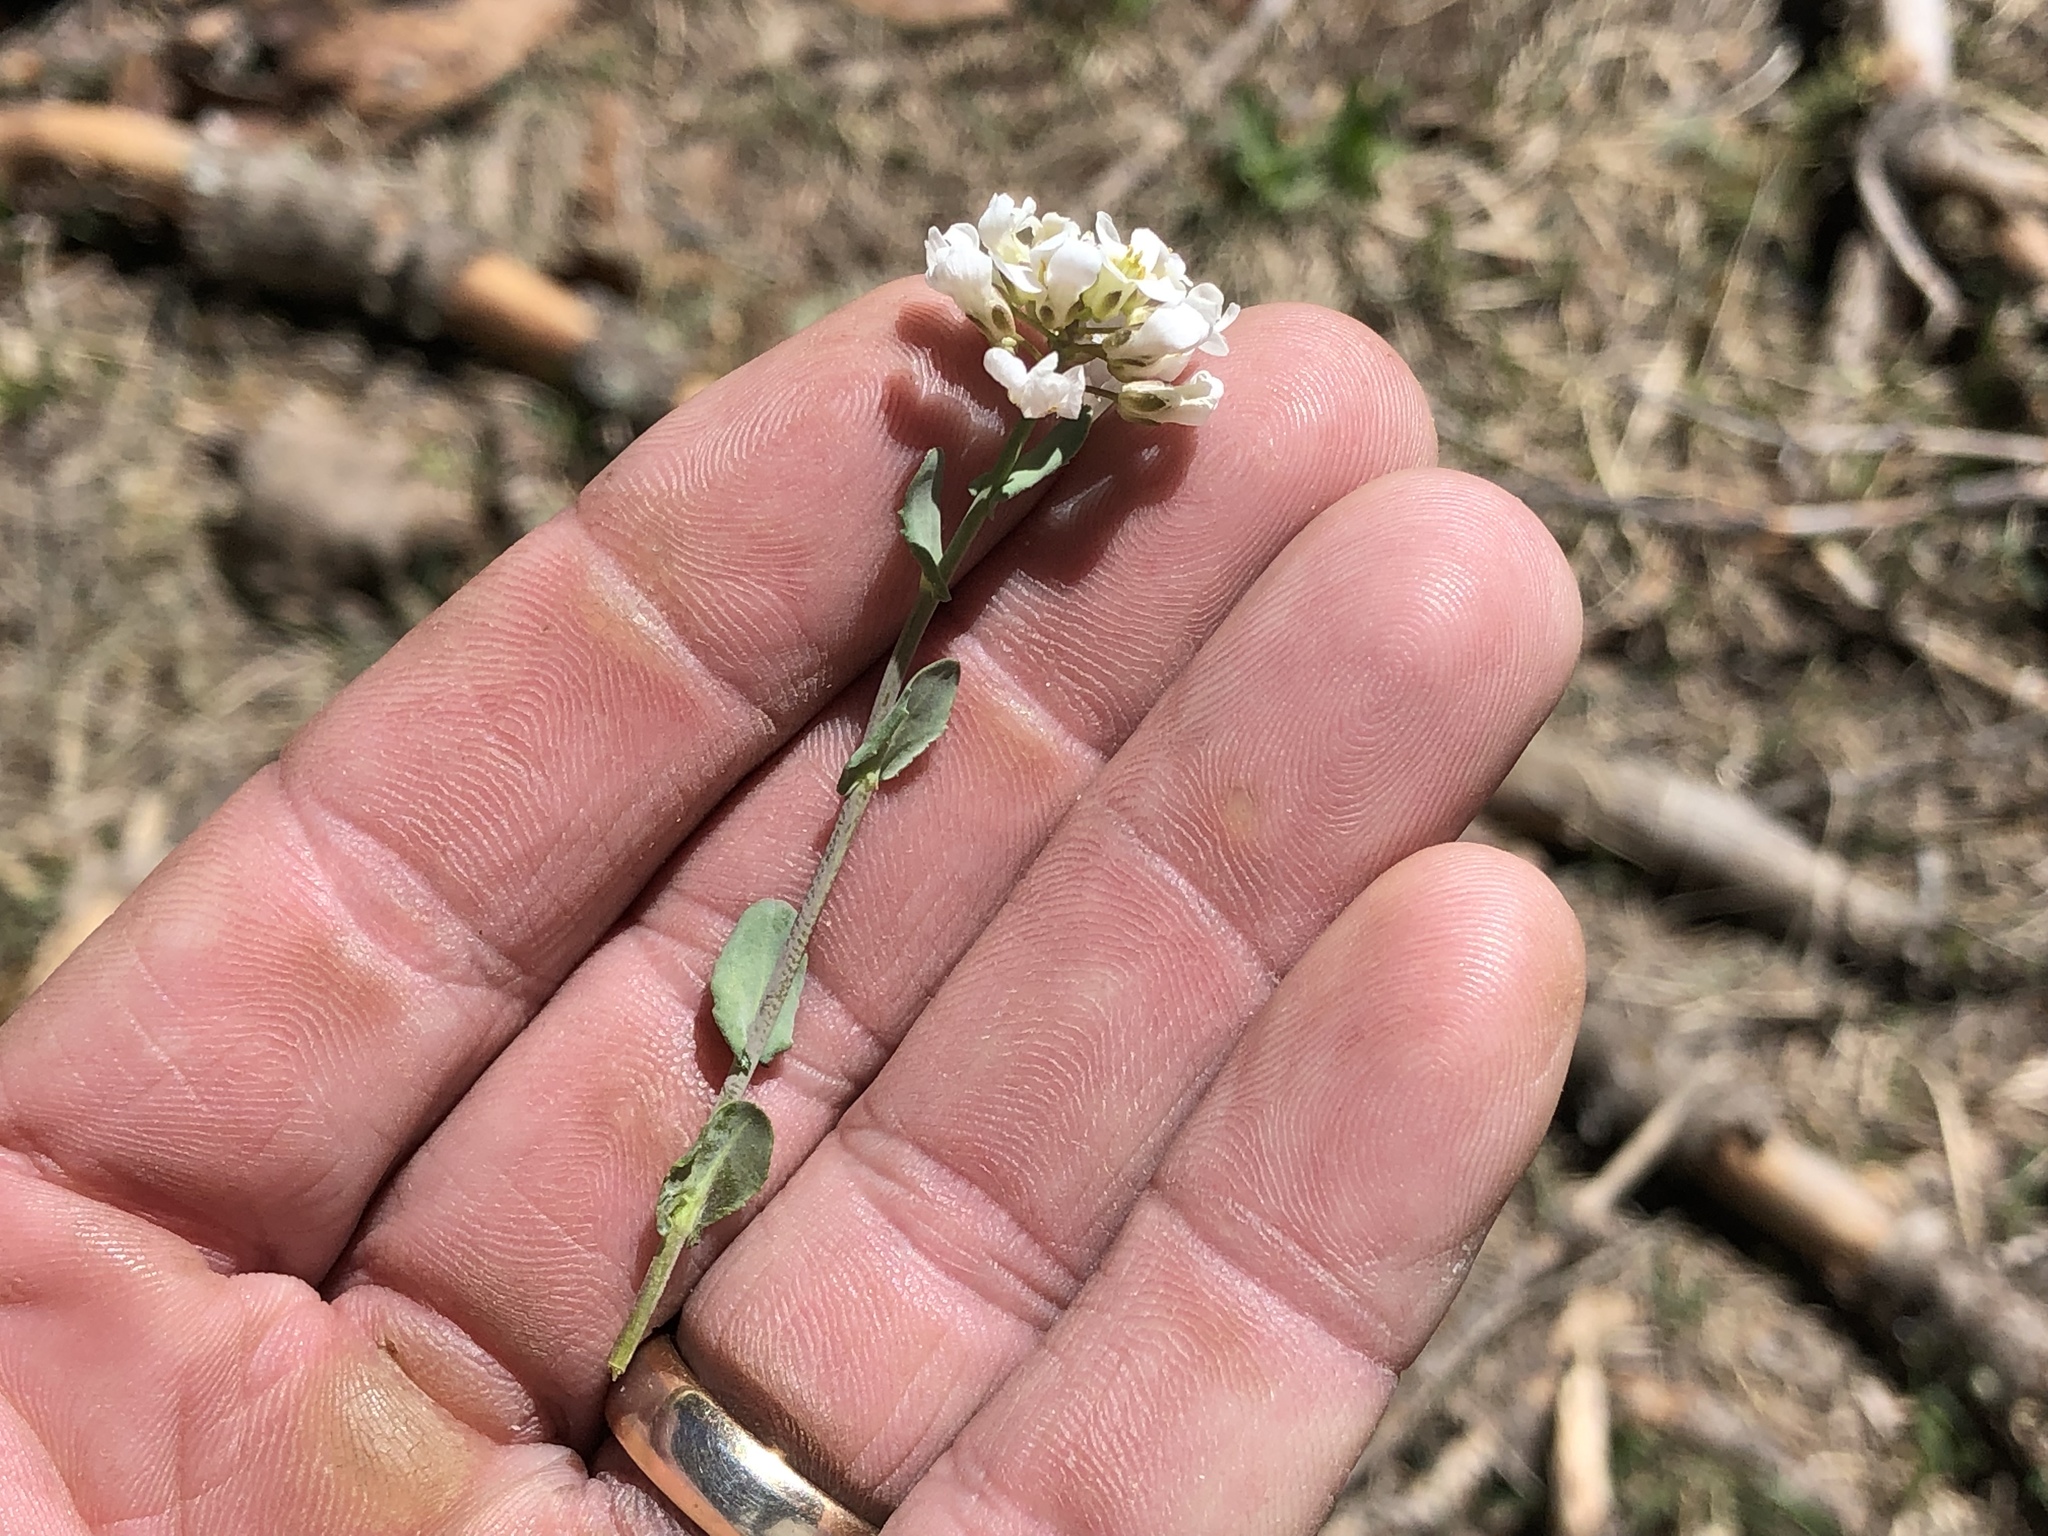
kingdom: Plantae
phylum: Tracheophyta
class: Magnoliopsida
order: Brassicales
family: Brassicaceae
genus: Noccaea
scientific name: Noccaea fendleri
